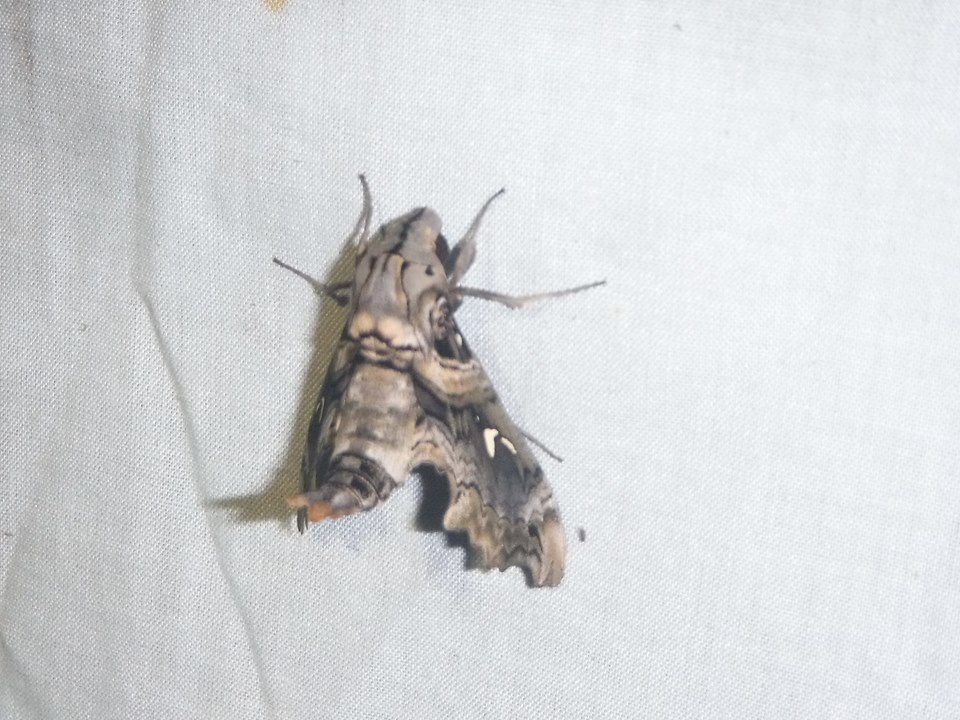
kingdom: Animalia
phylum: Arthropoda
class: Insecta
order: Lepidoptera
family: Sphingidae
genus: Madoryx
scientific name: Madoryx pseudothyreus
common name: False-windowed sphinx
